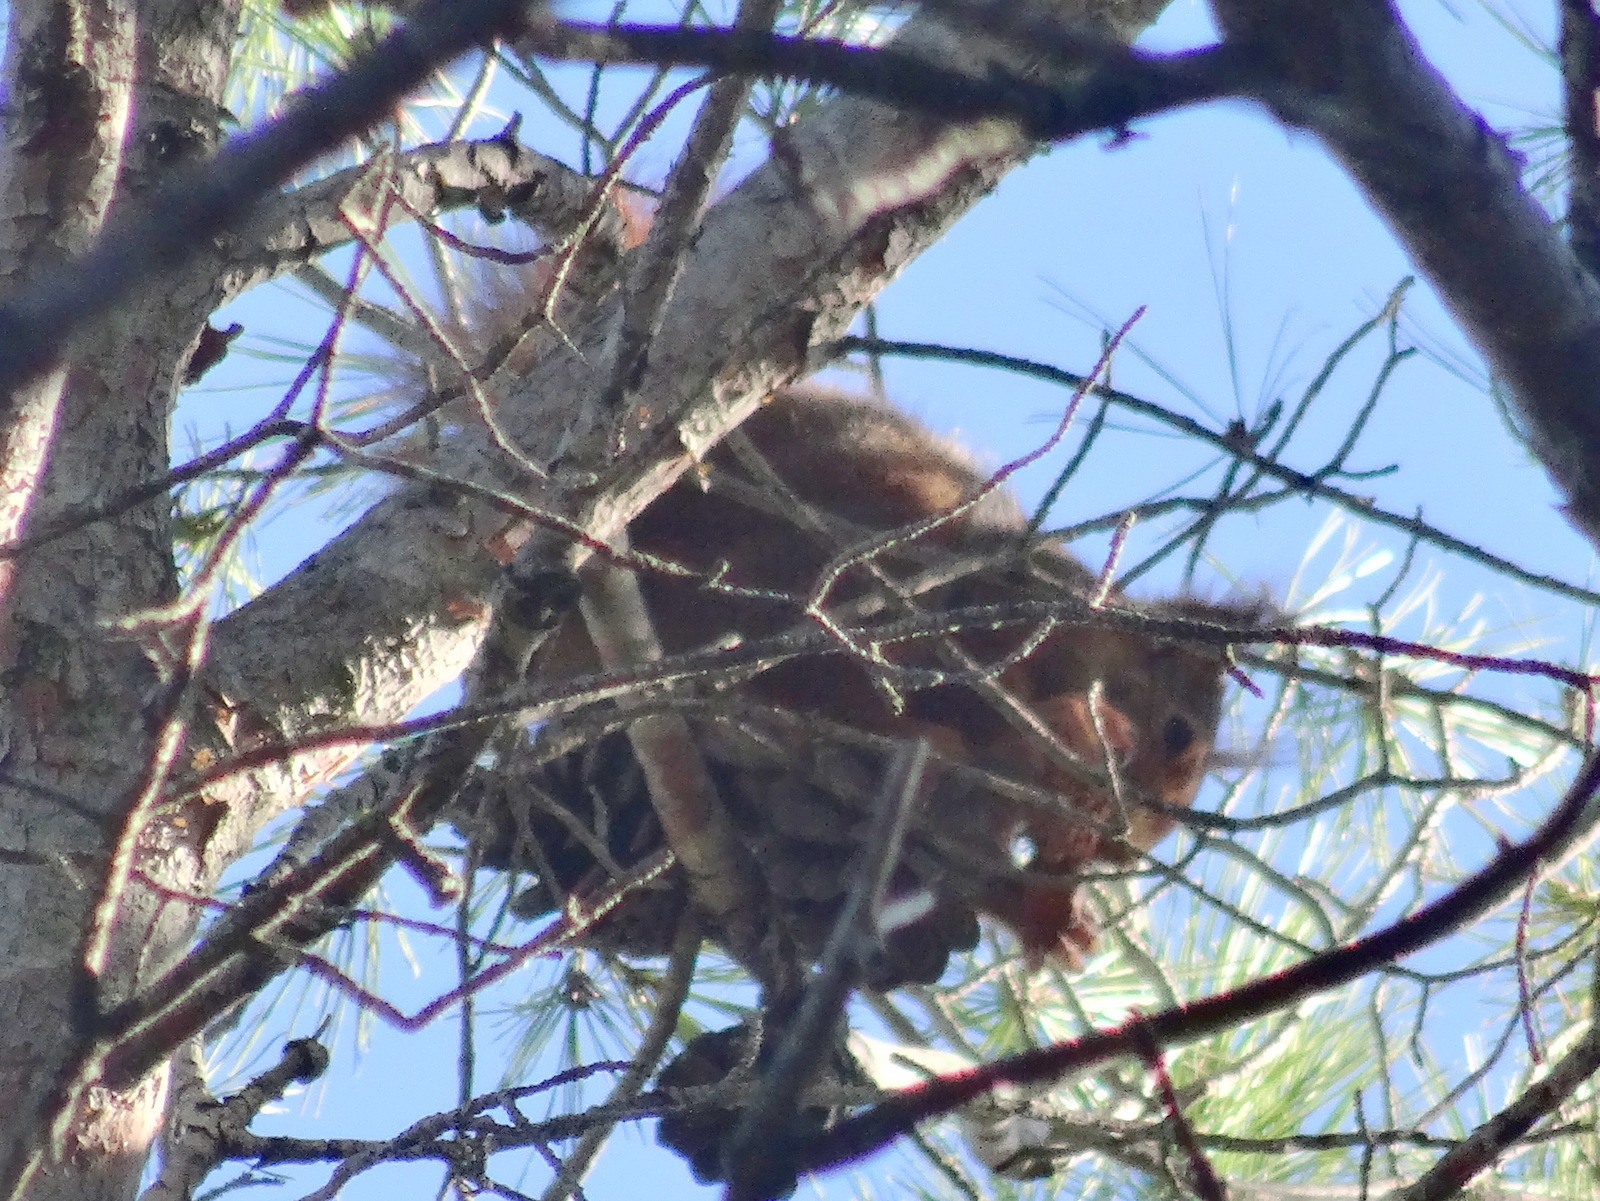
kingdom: Animalia
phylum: Chordata
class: Mammalia
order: Rodentia
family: Sciuridae
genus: Sciurus
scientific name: Sciurus vulgaris
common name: Eurasian red squirrel
